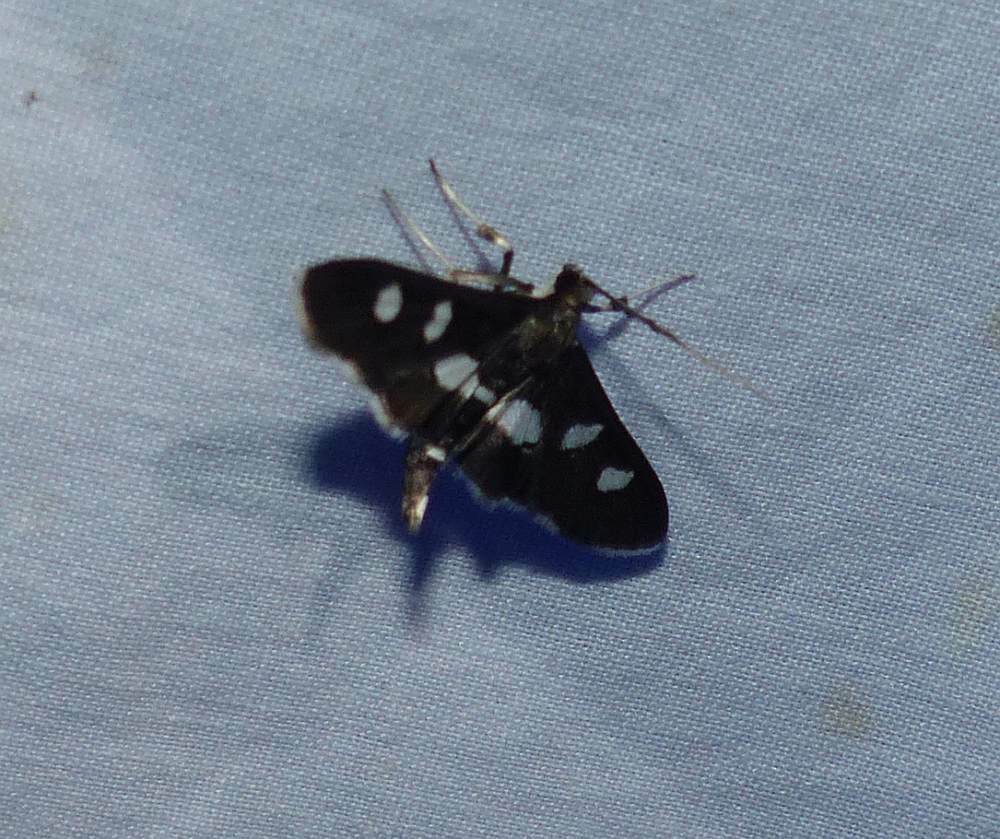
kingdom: Animalia
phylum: Arthropoda
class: Insecta
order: Lepidoptera
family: Crambidae
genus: Desmia
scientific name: Desmia
